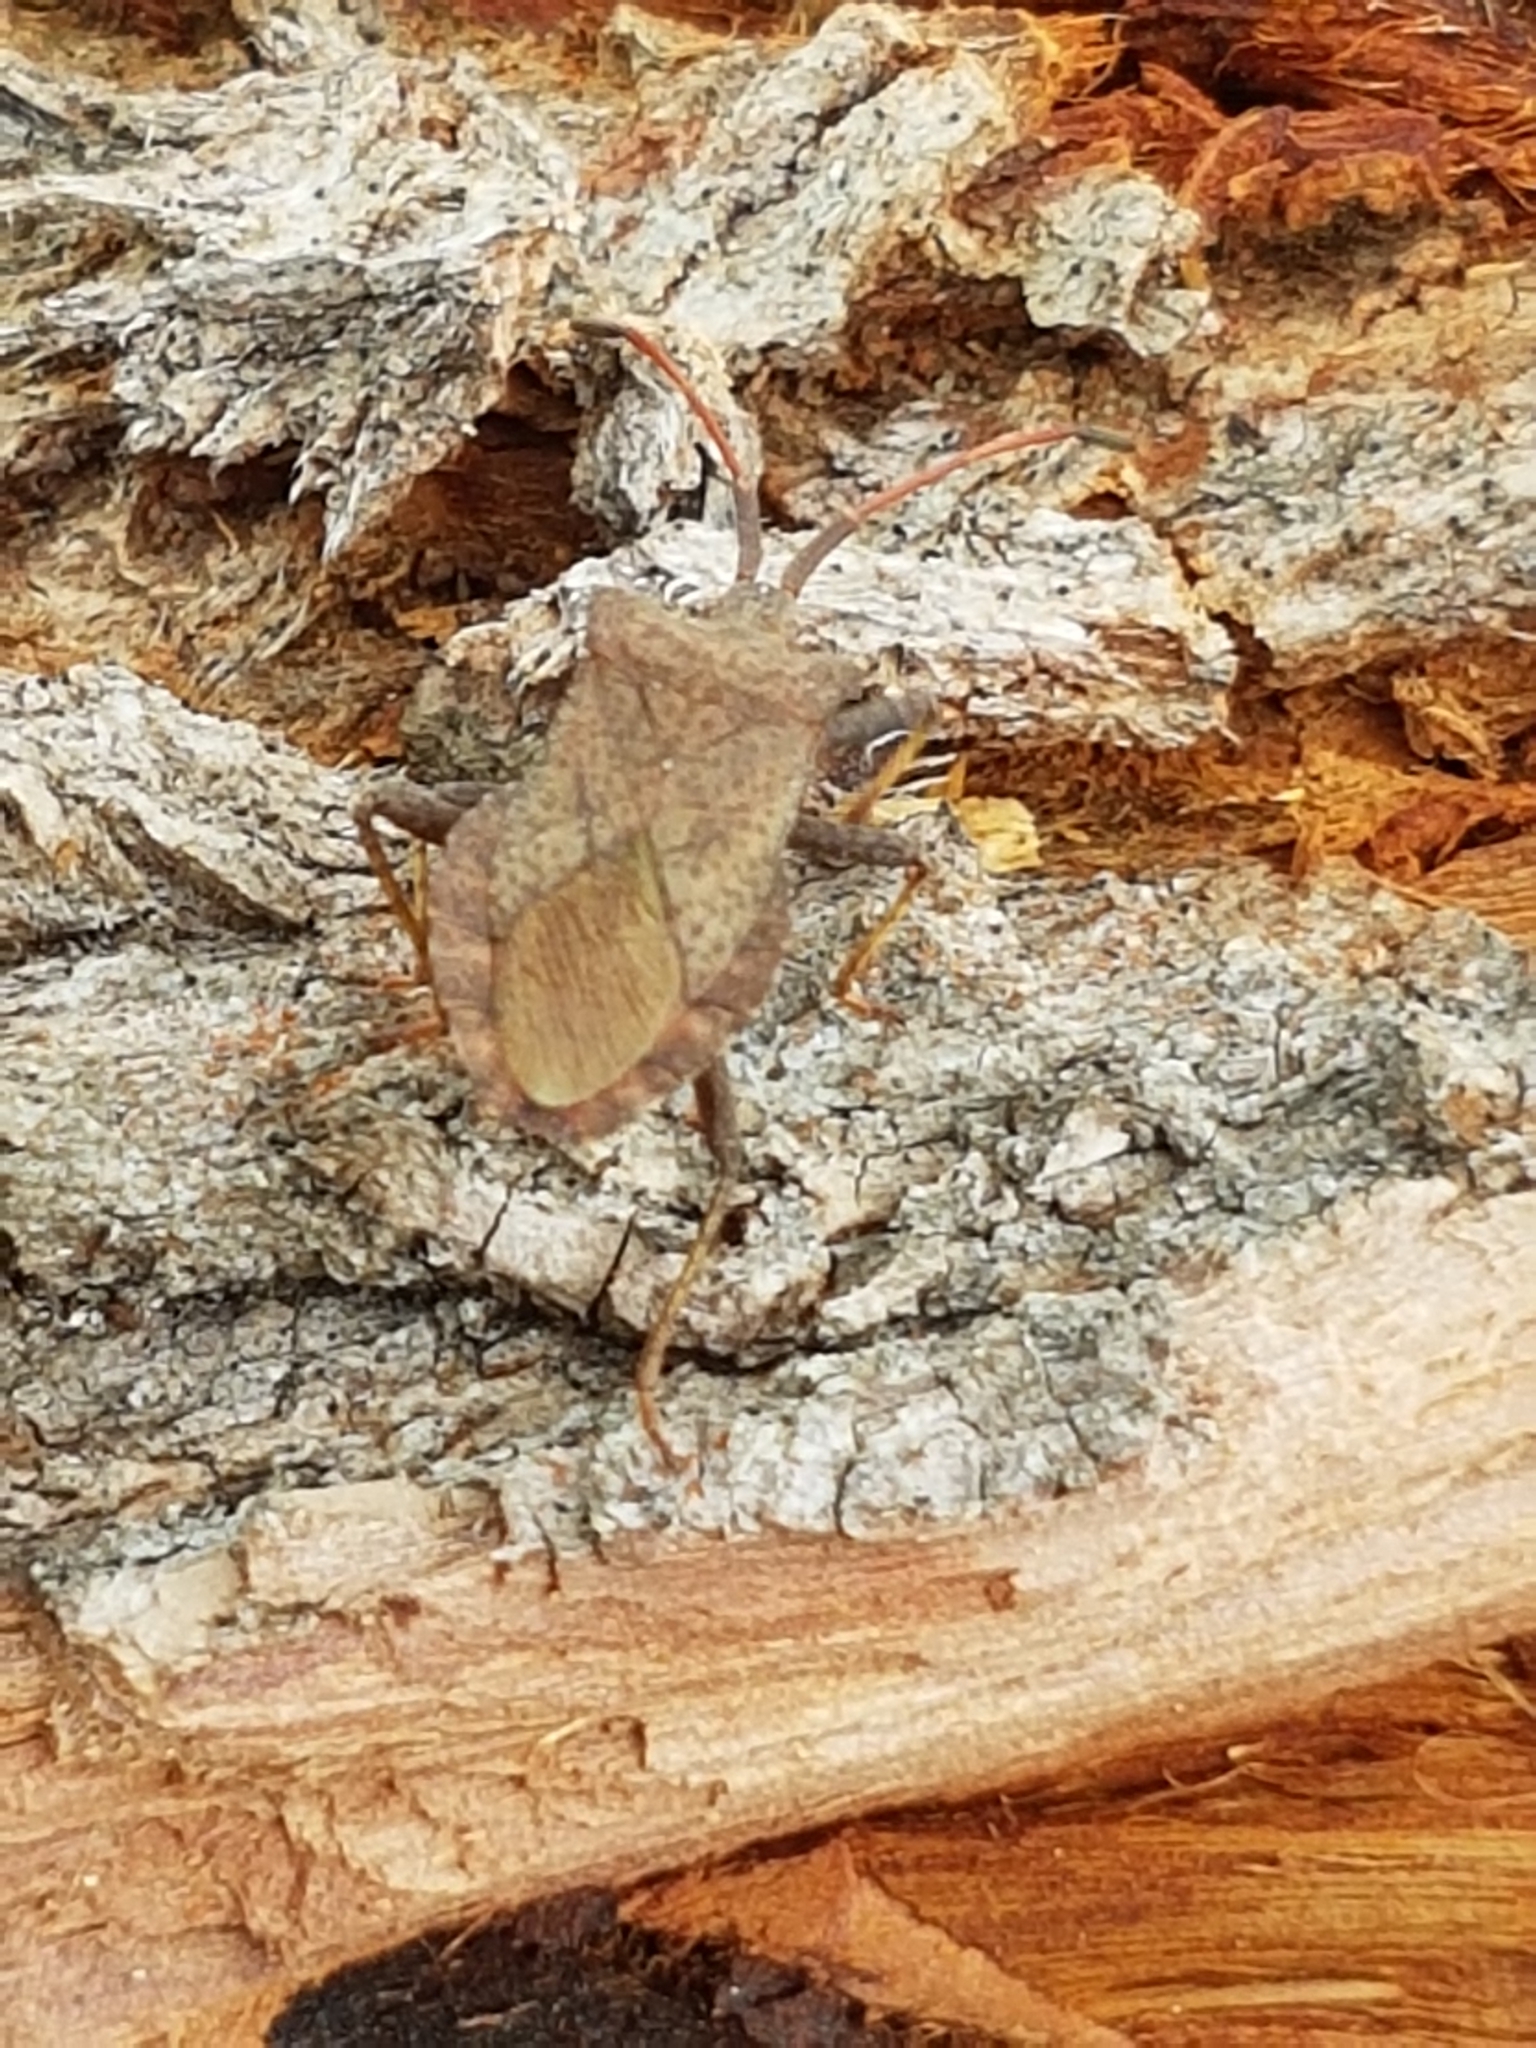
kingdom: Animalia
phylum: Arthropoda
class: Insecta
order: Hemiptera
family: Coreidae
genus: Coreus
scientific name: Coreus marginatus
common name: Dock bug
